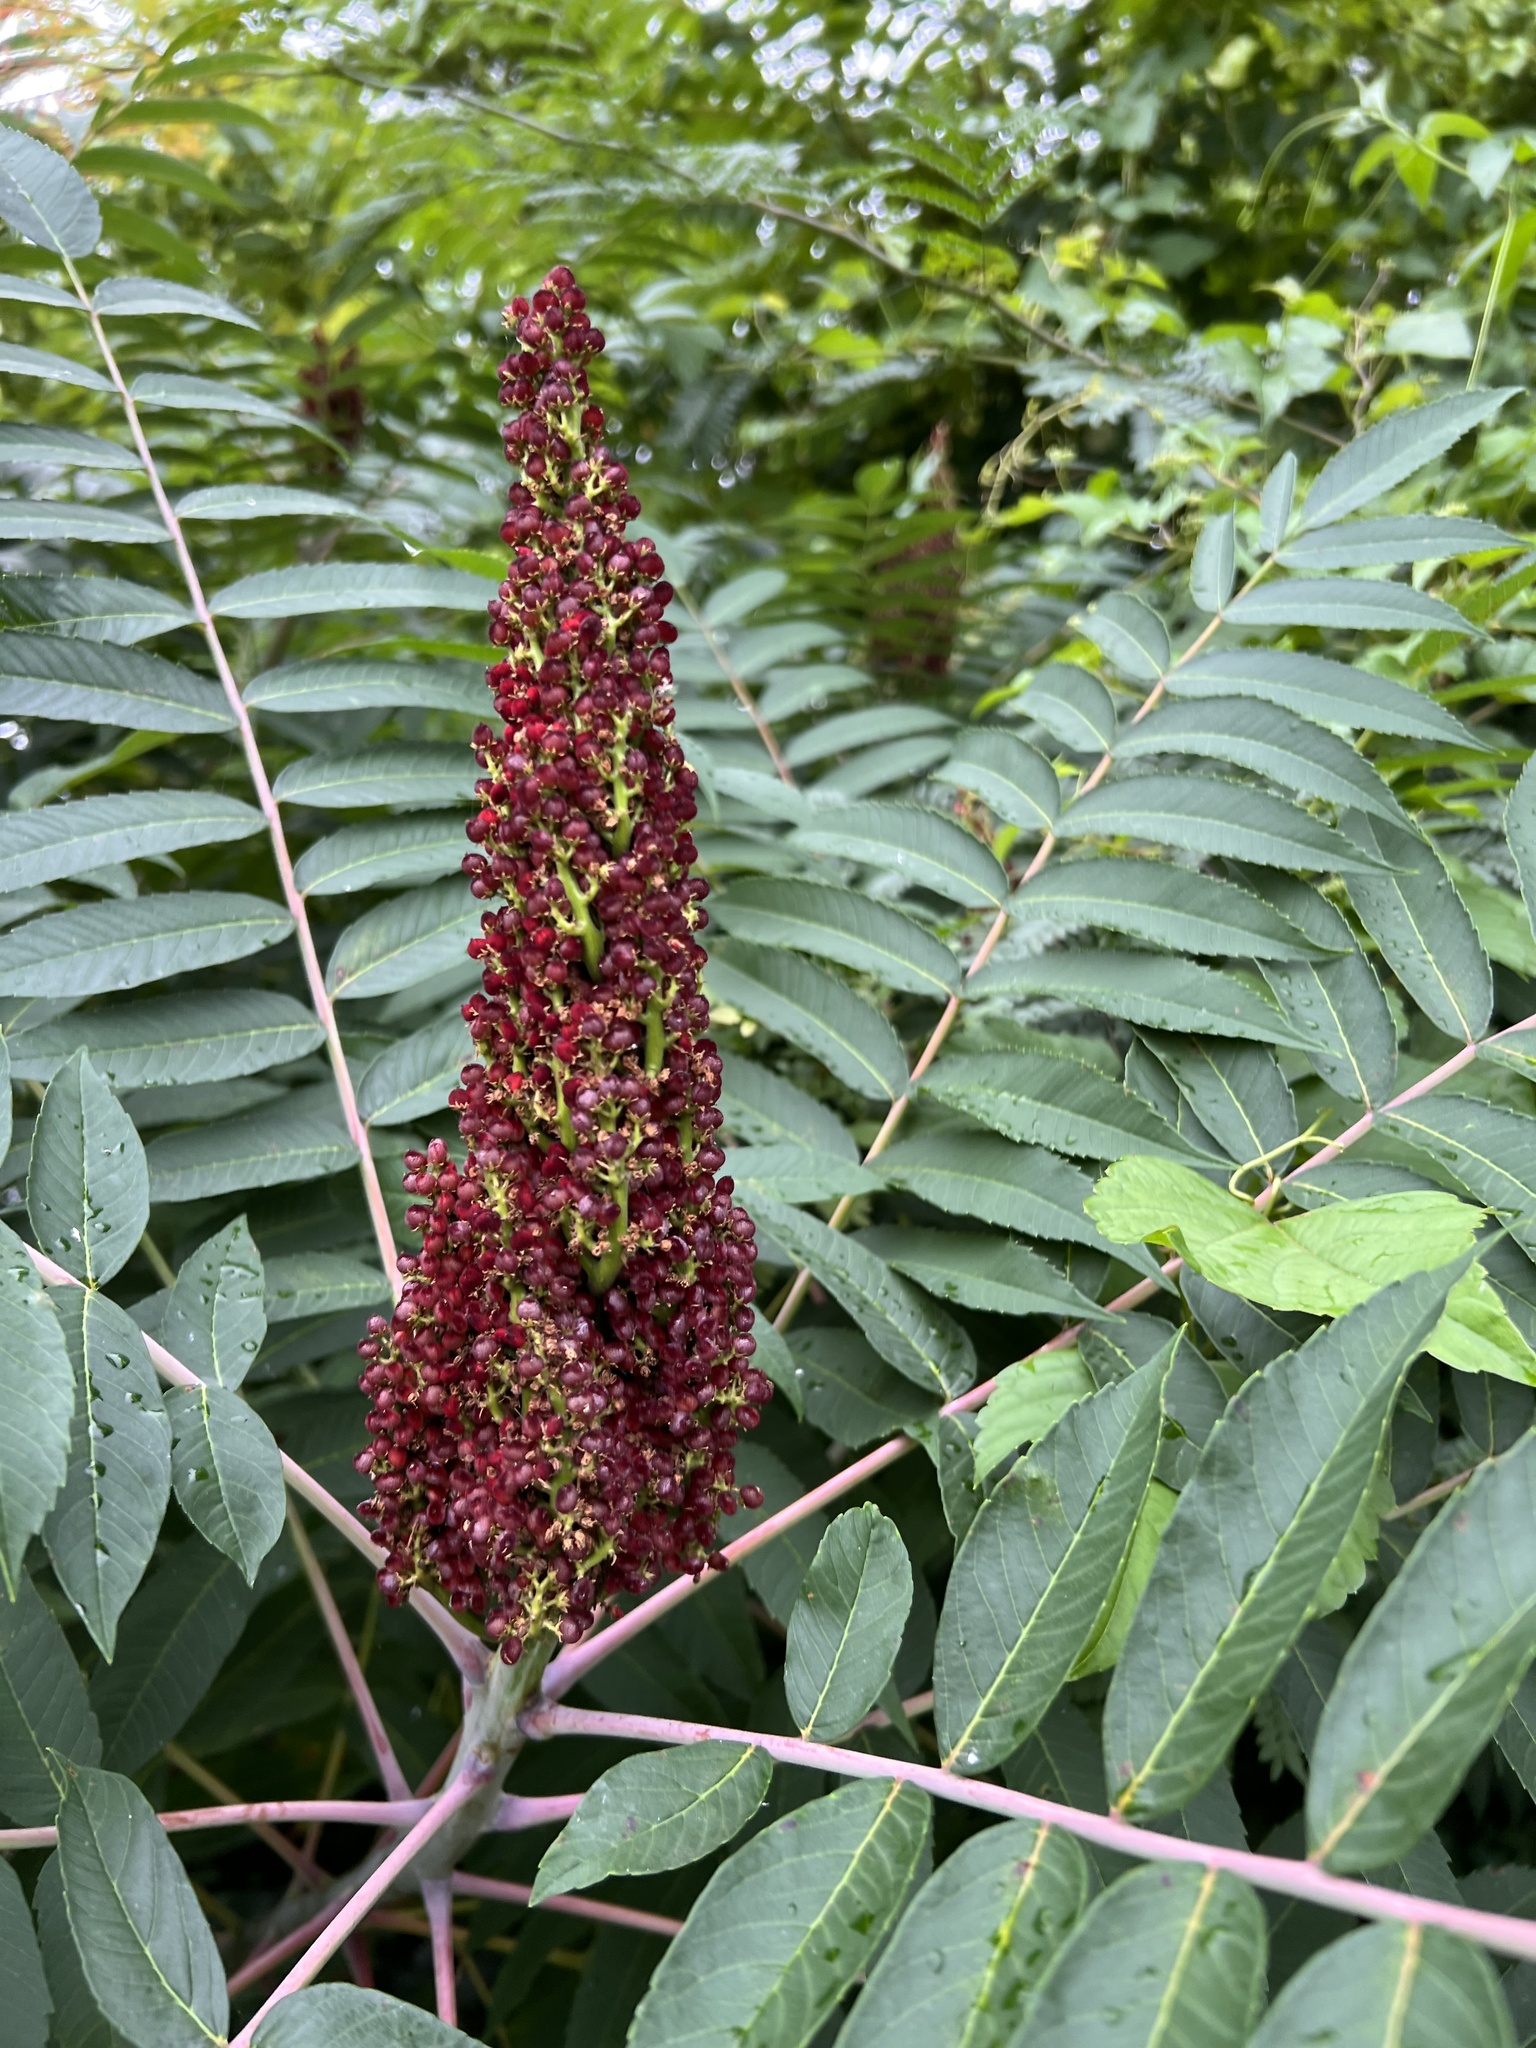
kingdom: Plantae
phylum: Tracheophyta
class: Magnoliopsida
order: Sapindales
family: Anacardiaceae
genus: Rhus
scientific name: Rhus glabra
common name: Scarlet sumac
